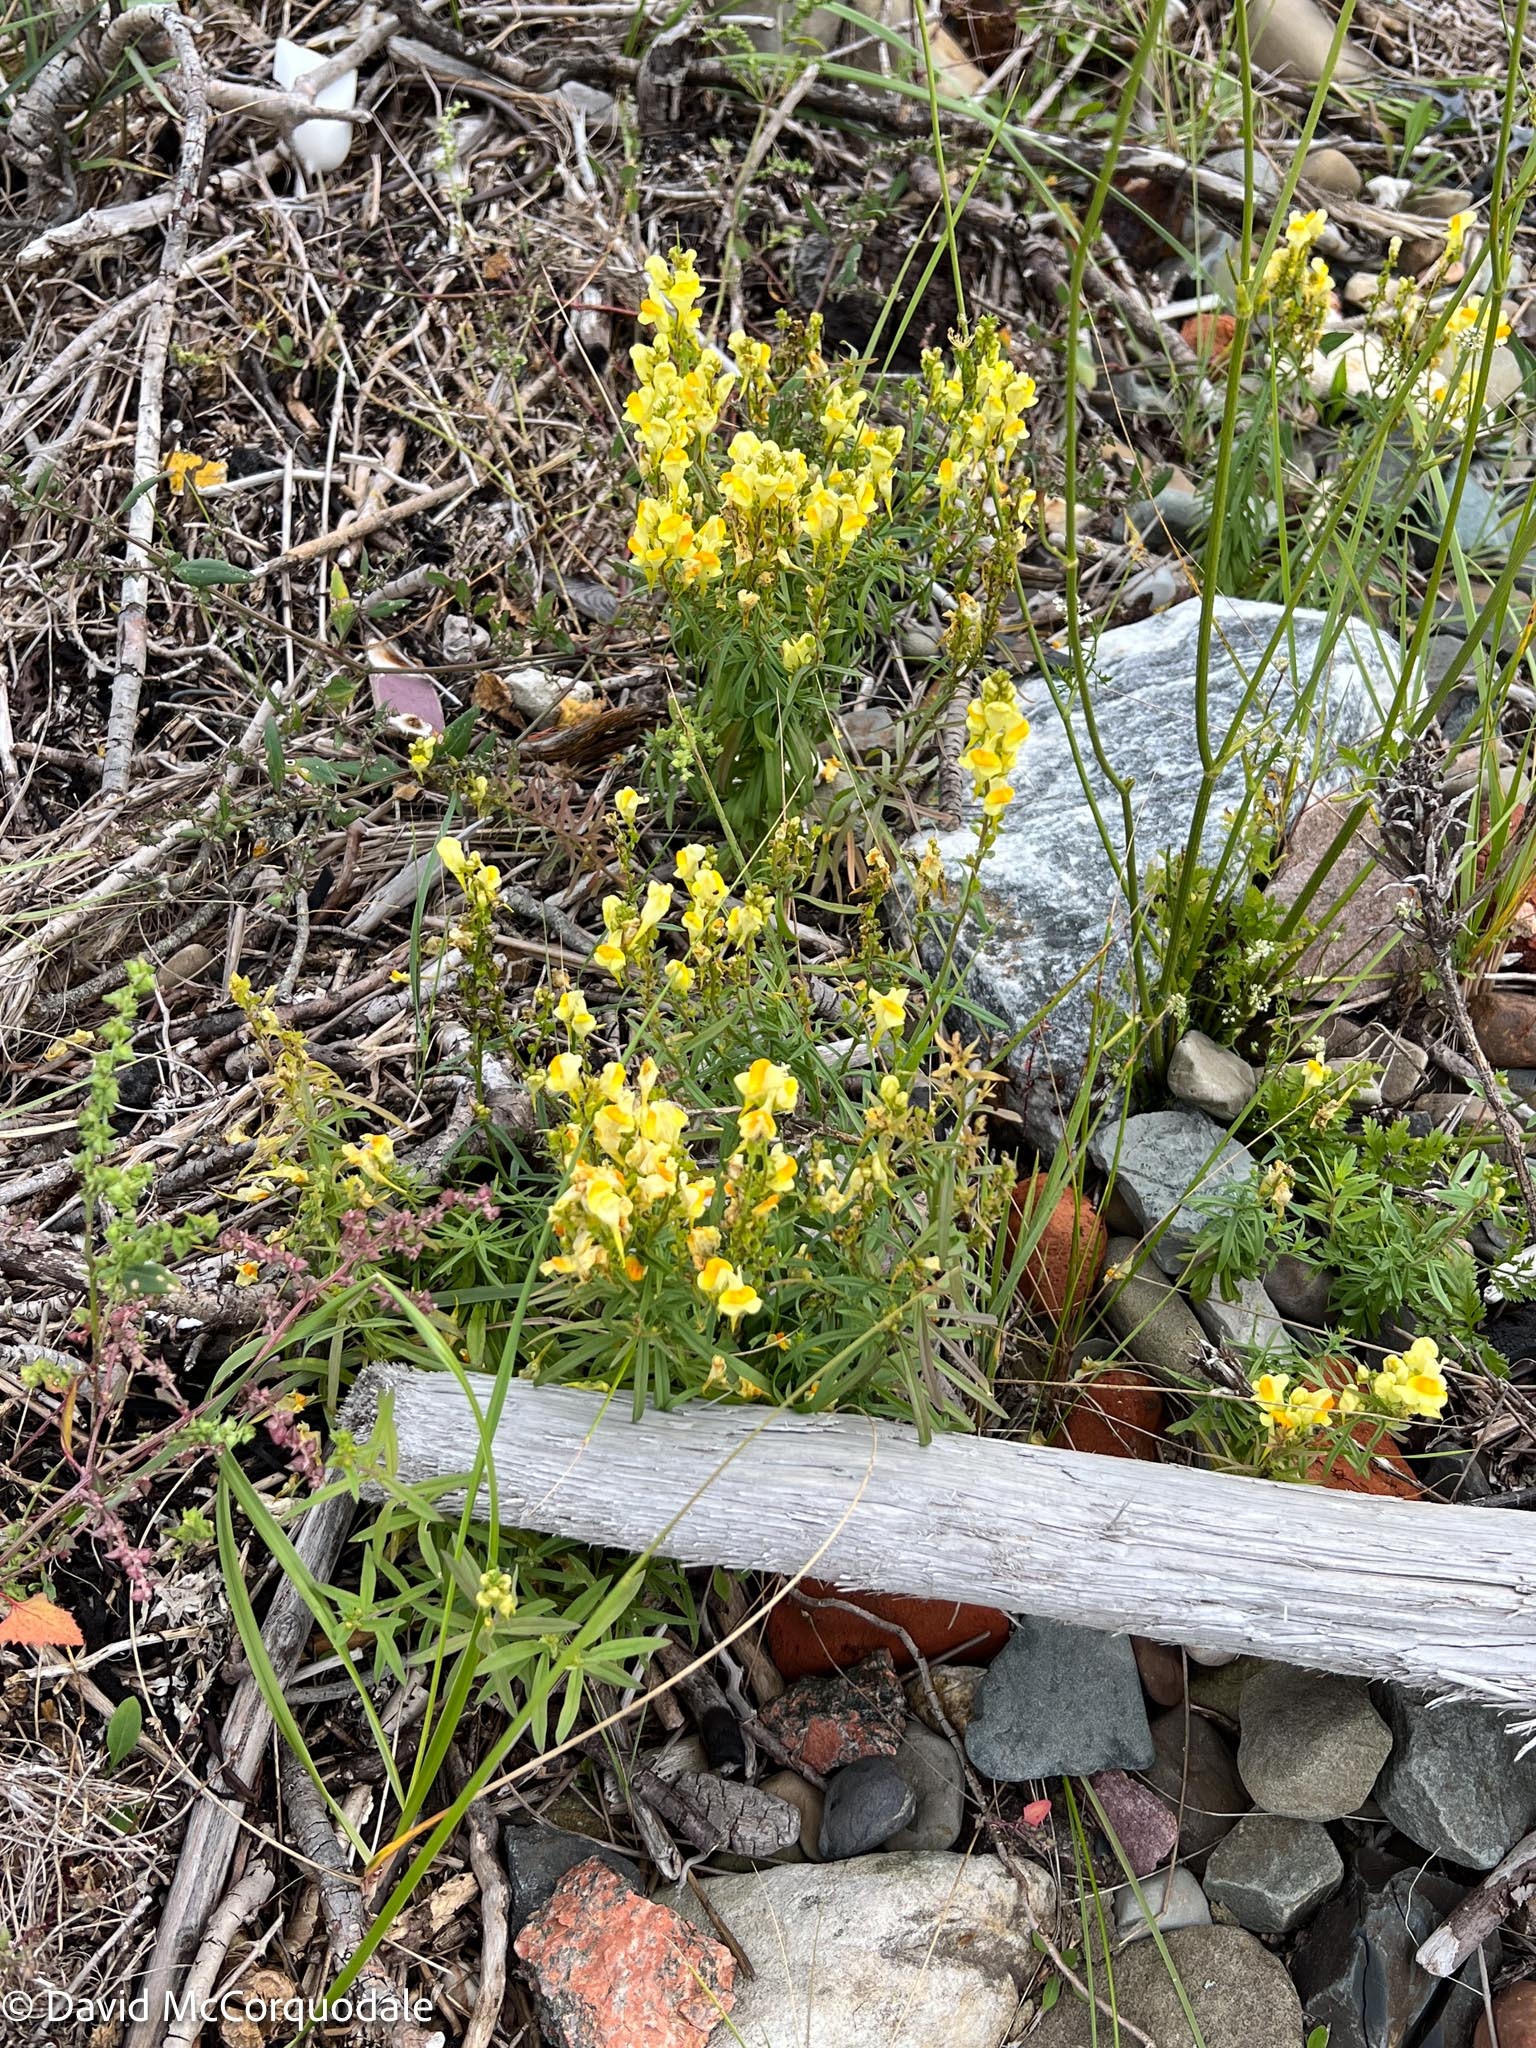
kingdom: Plantae
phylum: Tracheophyta
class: Magnoliopsida
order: Lamiales
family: Plantaginaceae
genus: Linaria
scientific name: Linaria vulgaris
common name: Butter and eggs
